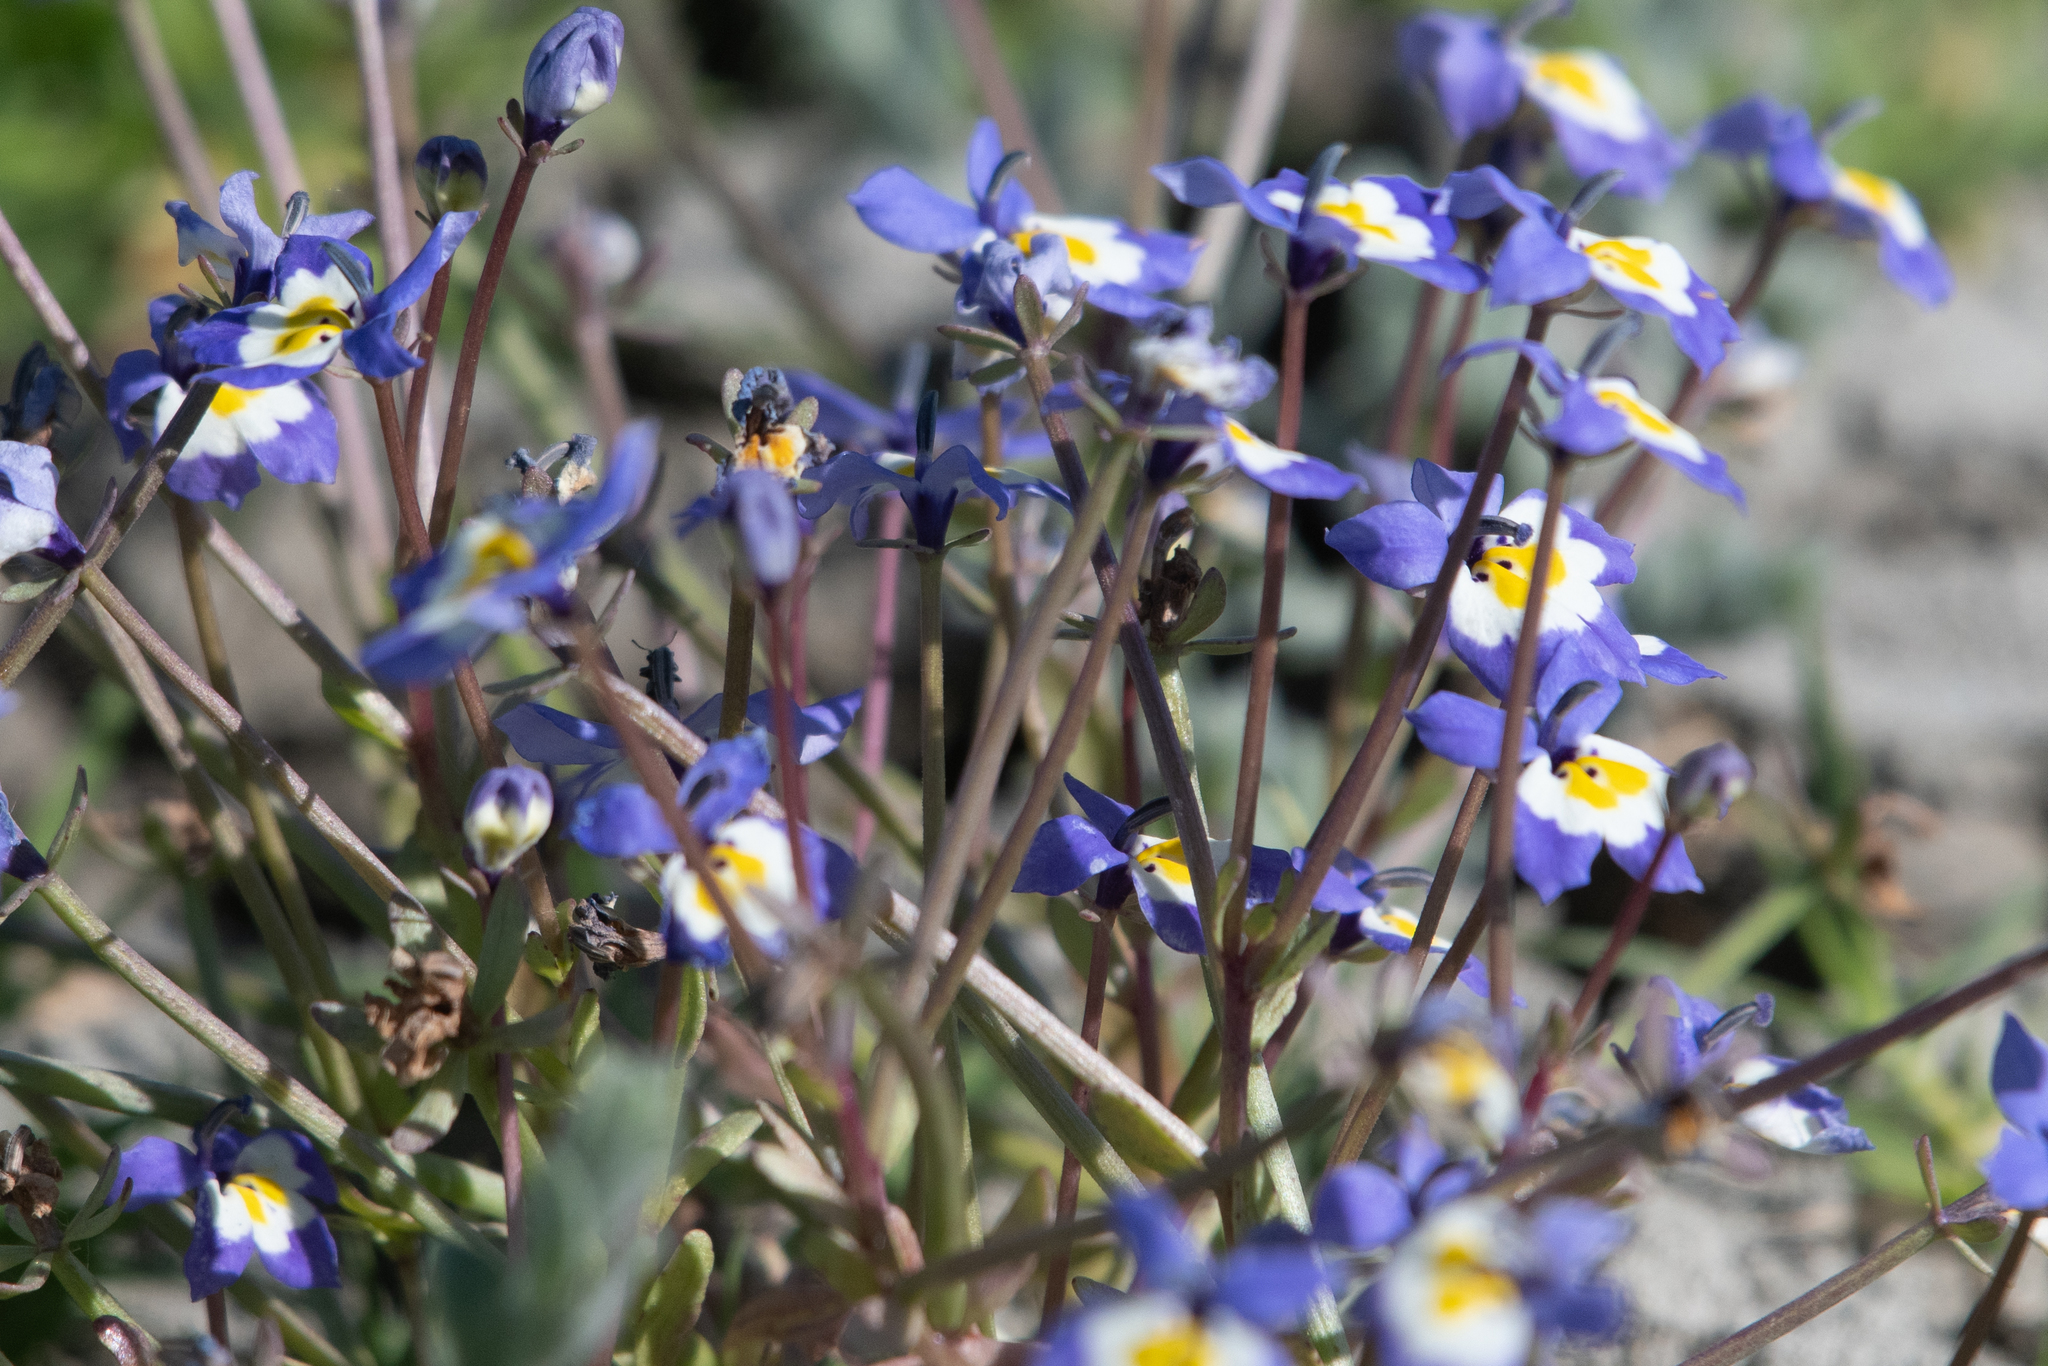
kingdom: Plantae
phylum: Tracheophyta
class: Magnoliopsida
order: Asterales
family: Campanulaceae
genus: Downingia
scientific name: Downingia pulchella
